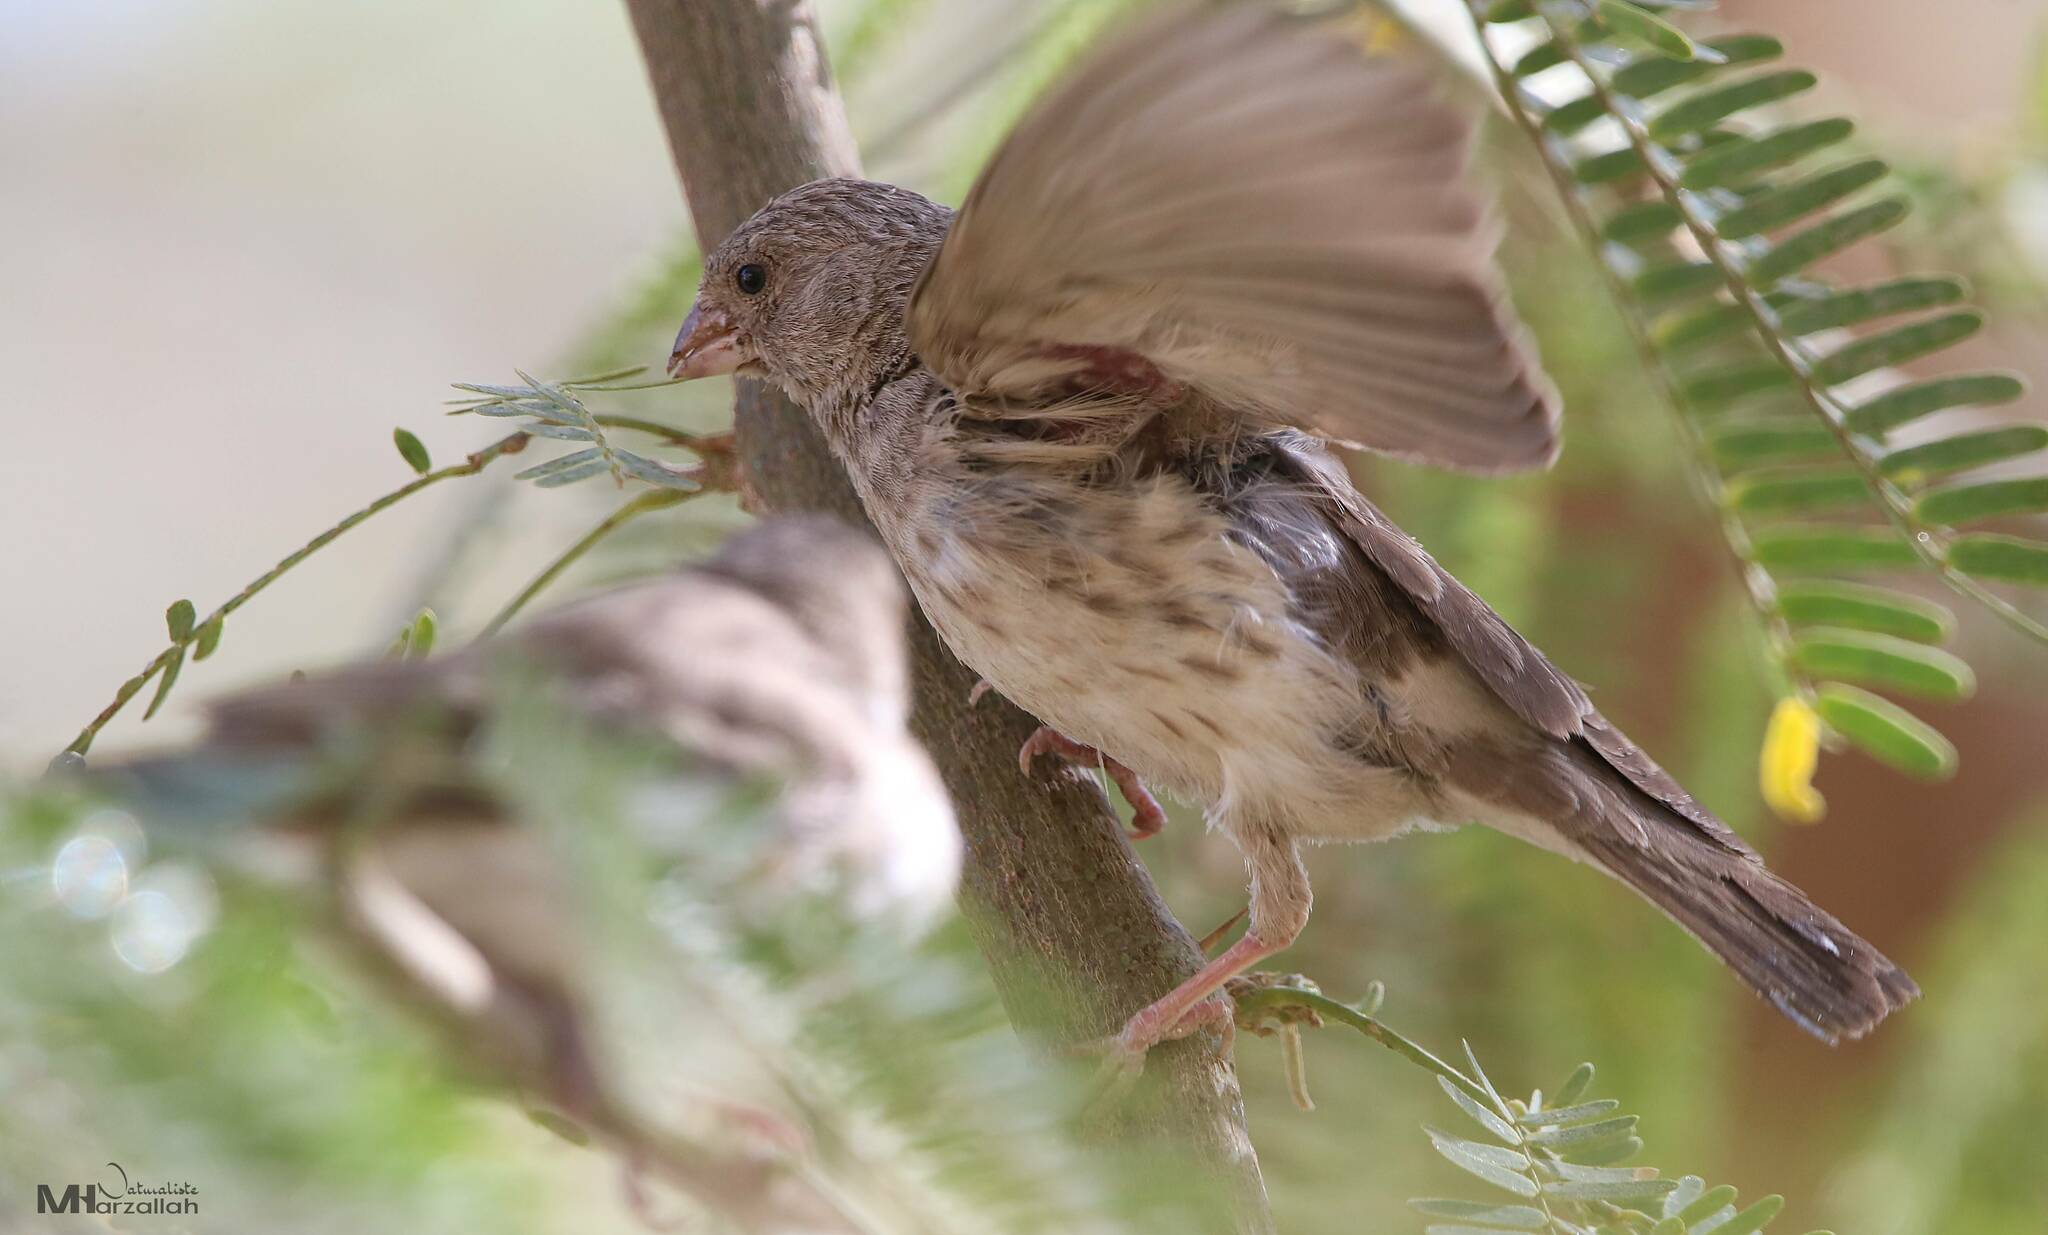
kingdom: Animalia
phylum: Chordata
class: Aves
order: Passeriformes
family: Fringillidae
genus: Crithagra
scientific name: Crithagra leucopygia
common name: White-rumped seedeater
